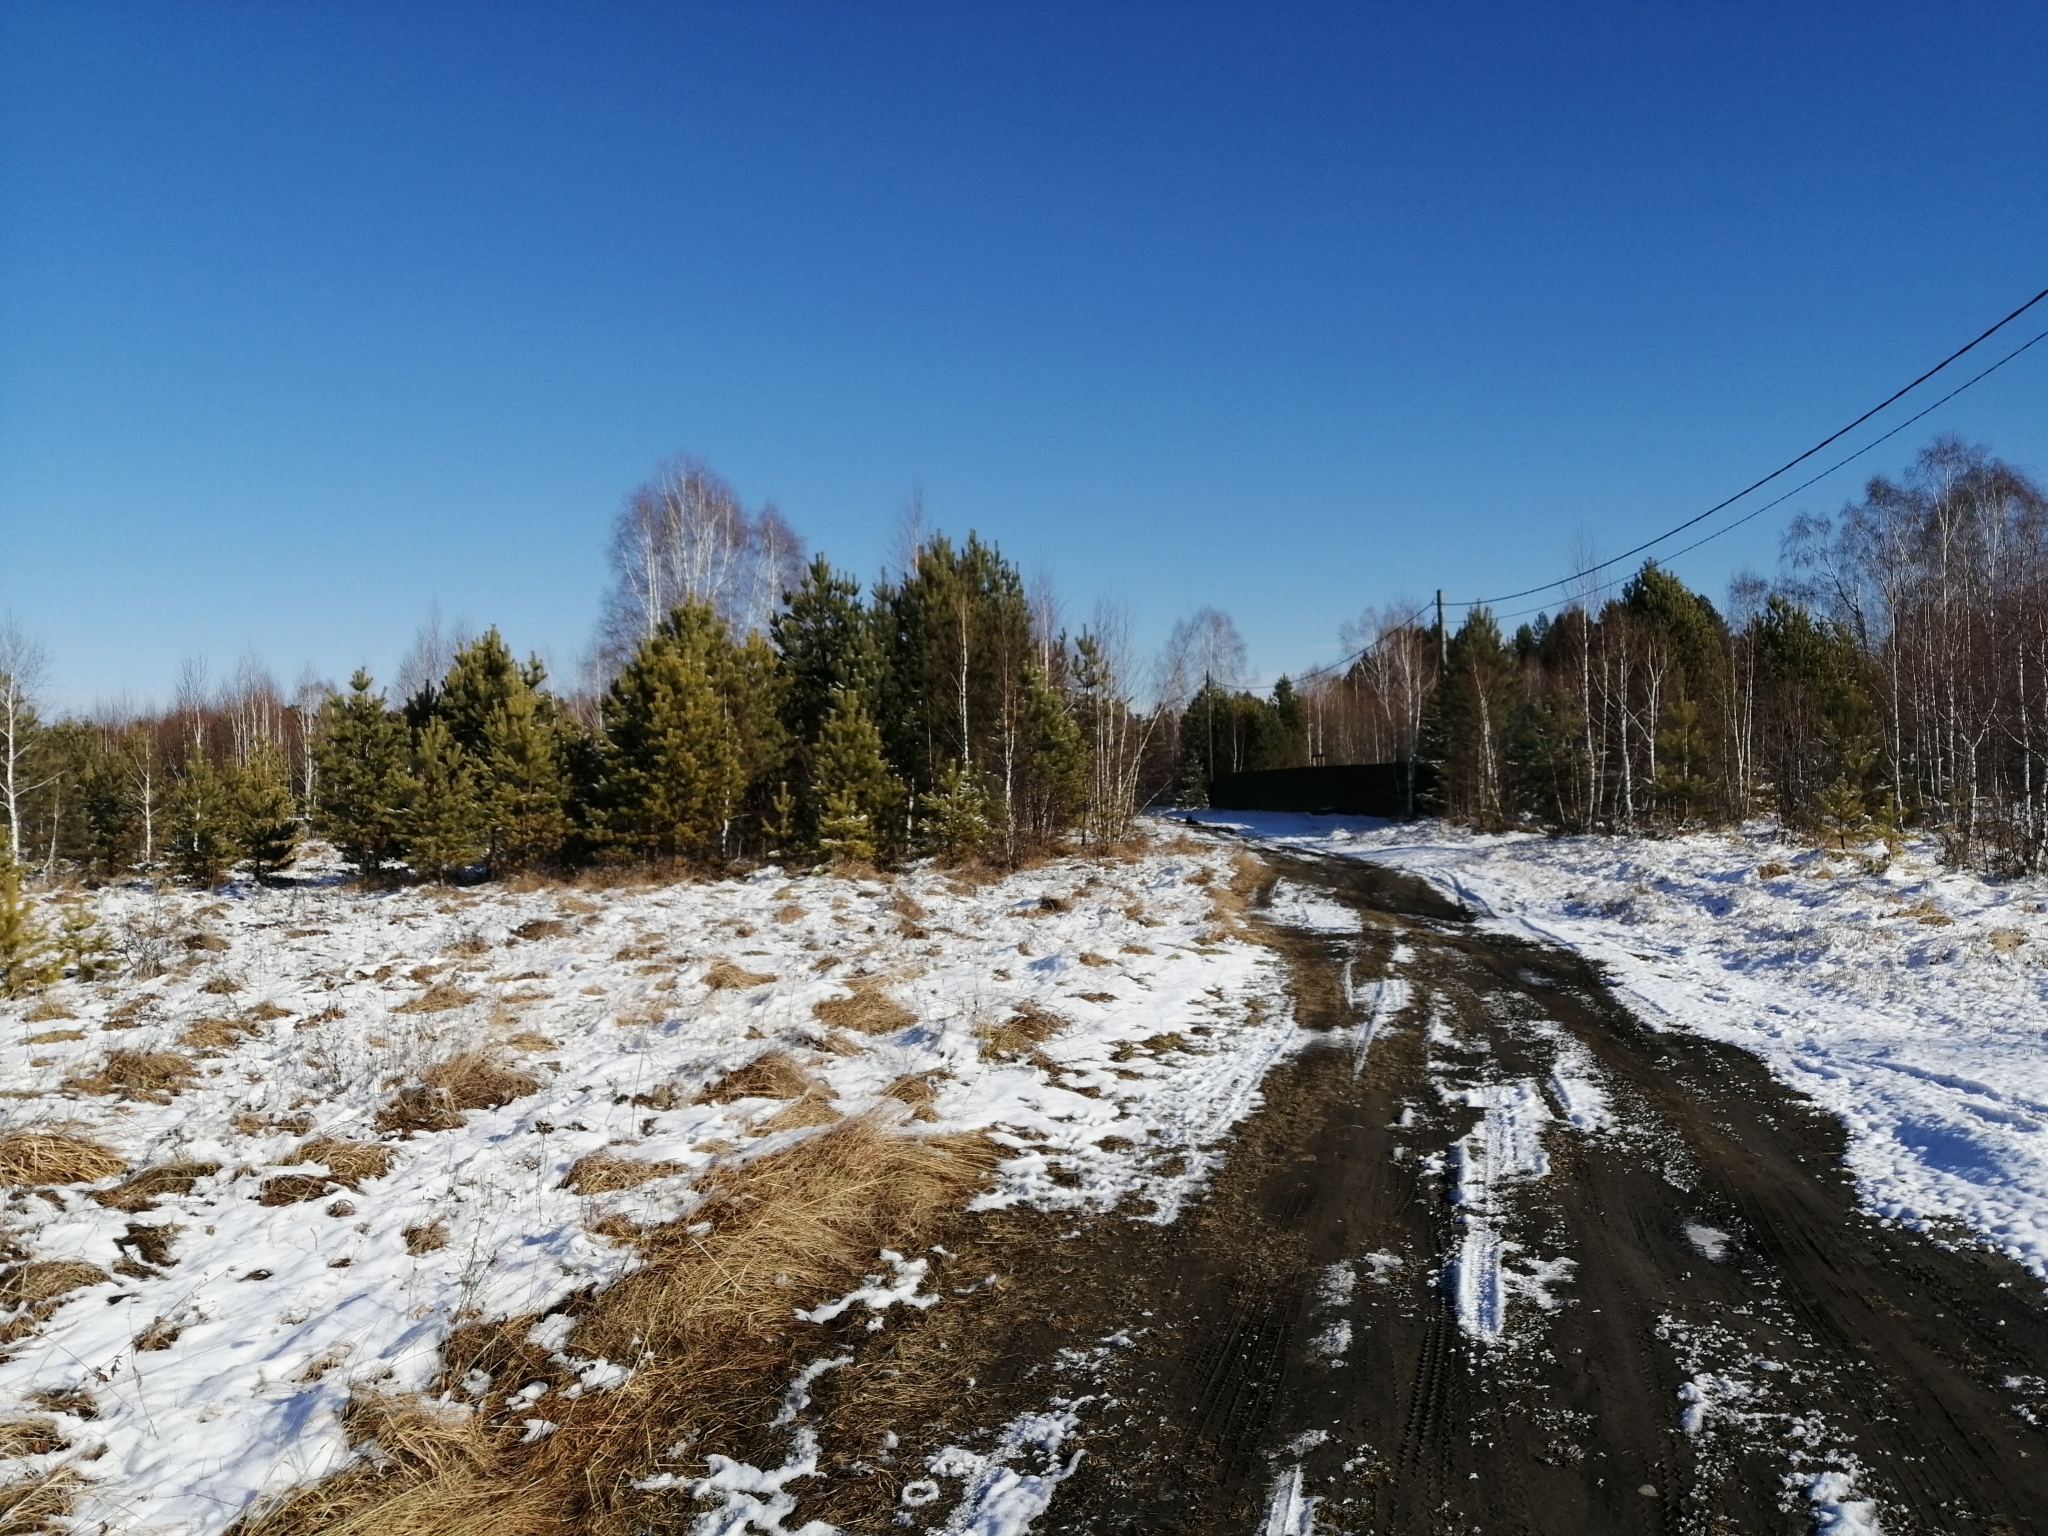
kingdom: Plantae
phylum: Tracheophyta
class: Pinopsida
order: Pinales
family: Pinaceae
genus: Pinus
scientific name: Pinus sylvestris
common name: Scots pine
